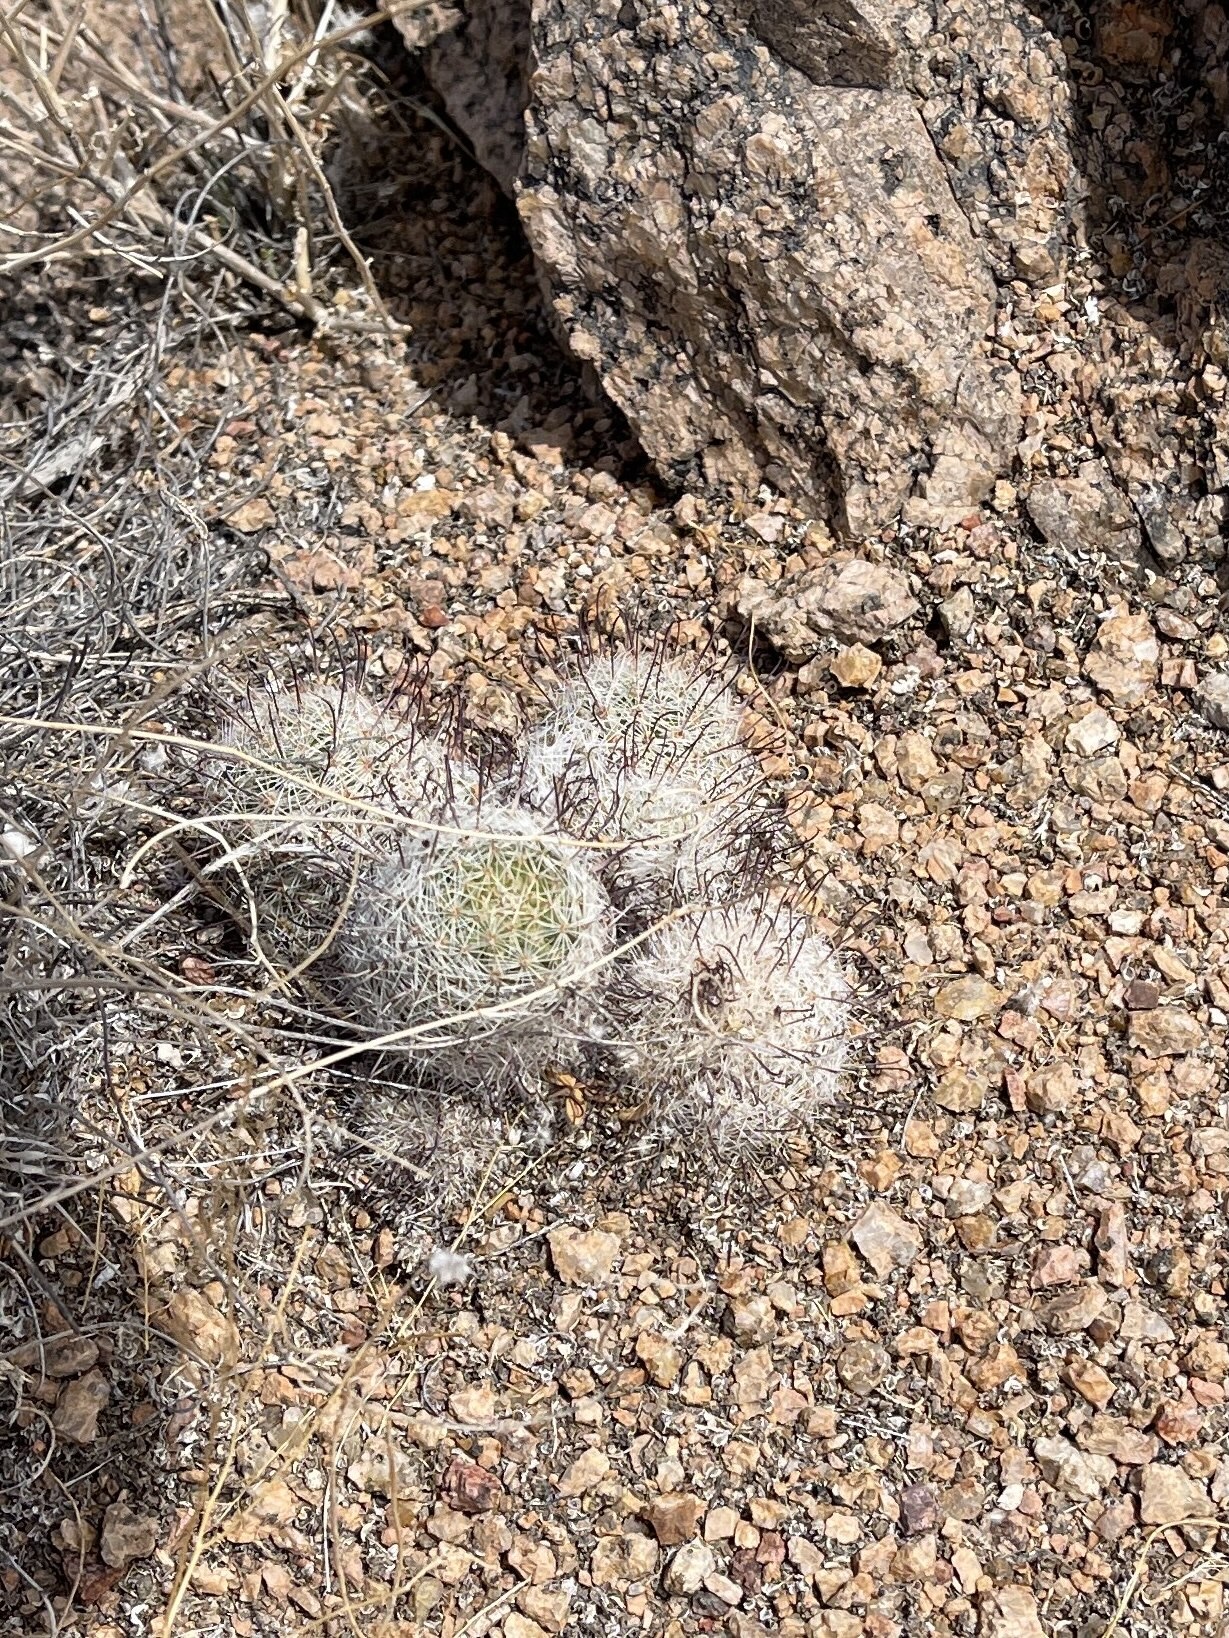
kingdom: Plantae
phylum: Tracheophyta
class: Magnoliopsida
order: Caryophyllales
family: Cactaceae
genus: Cochemiea
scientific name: Cochemiea grahamii
